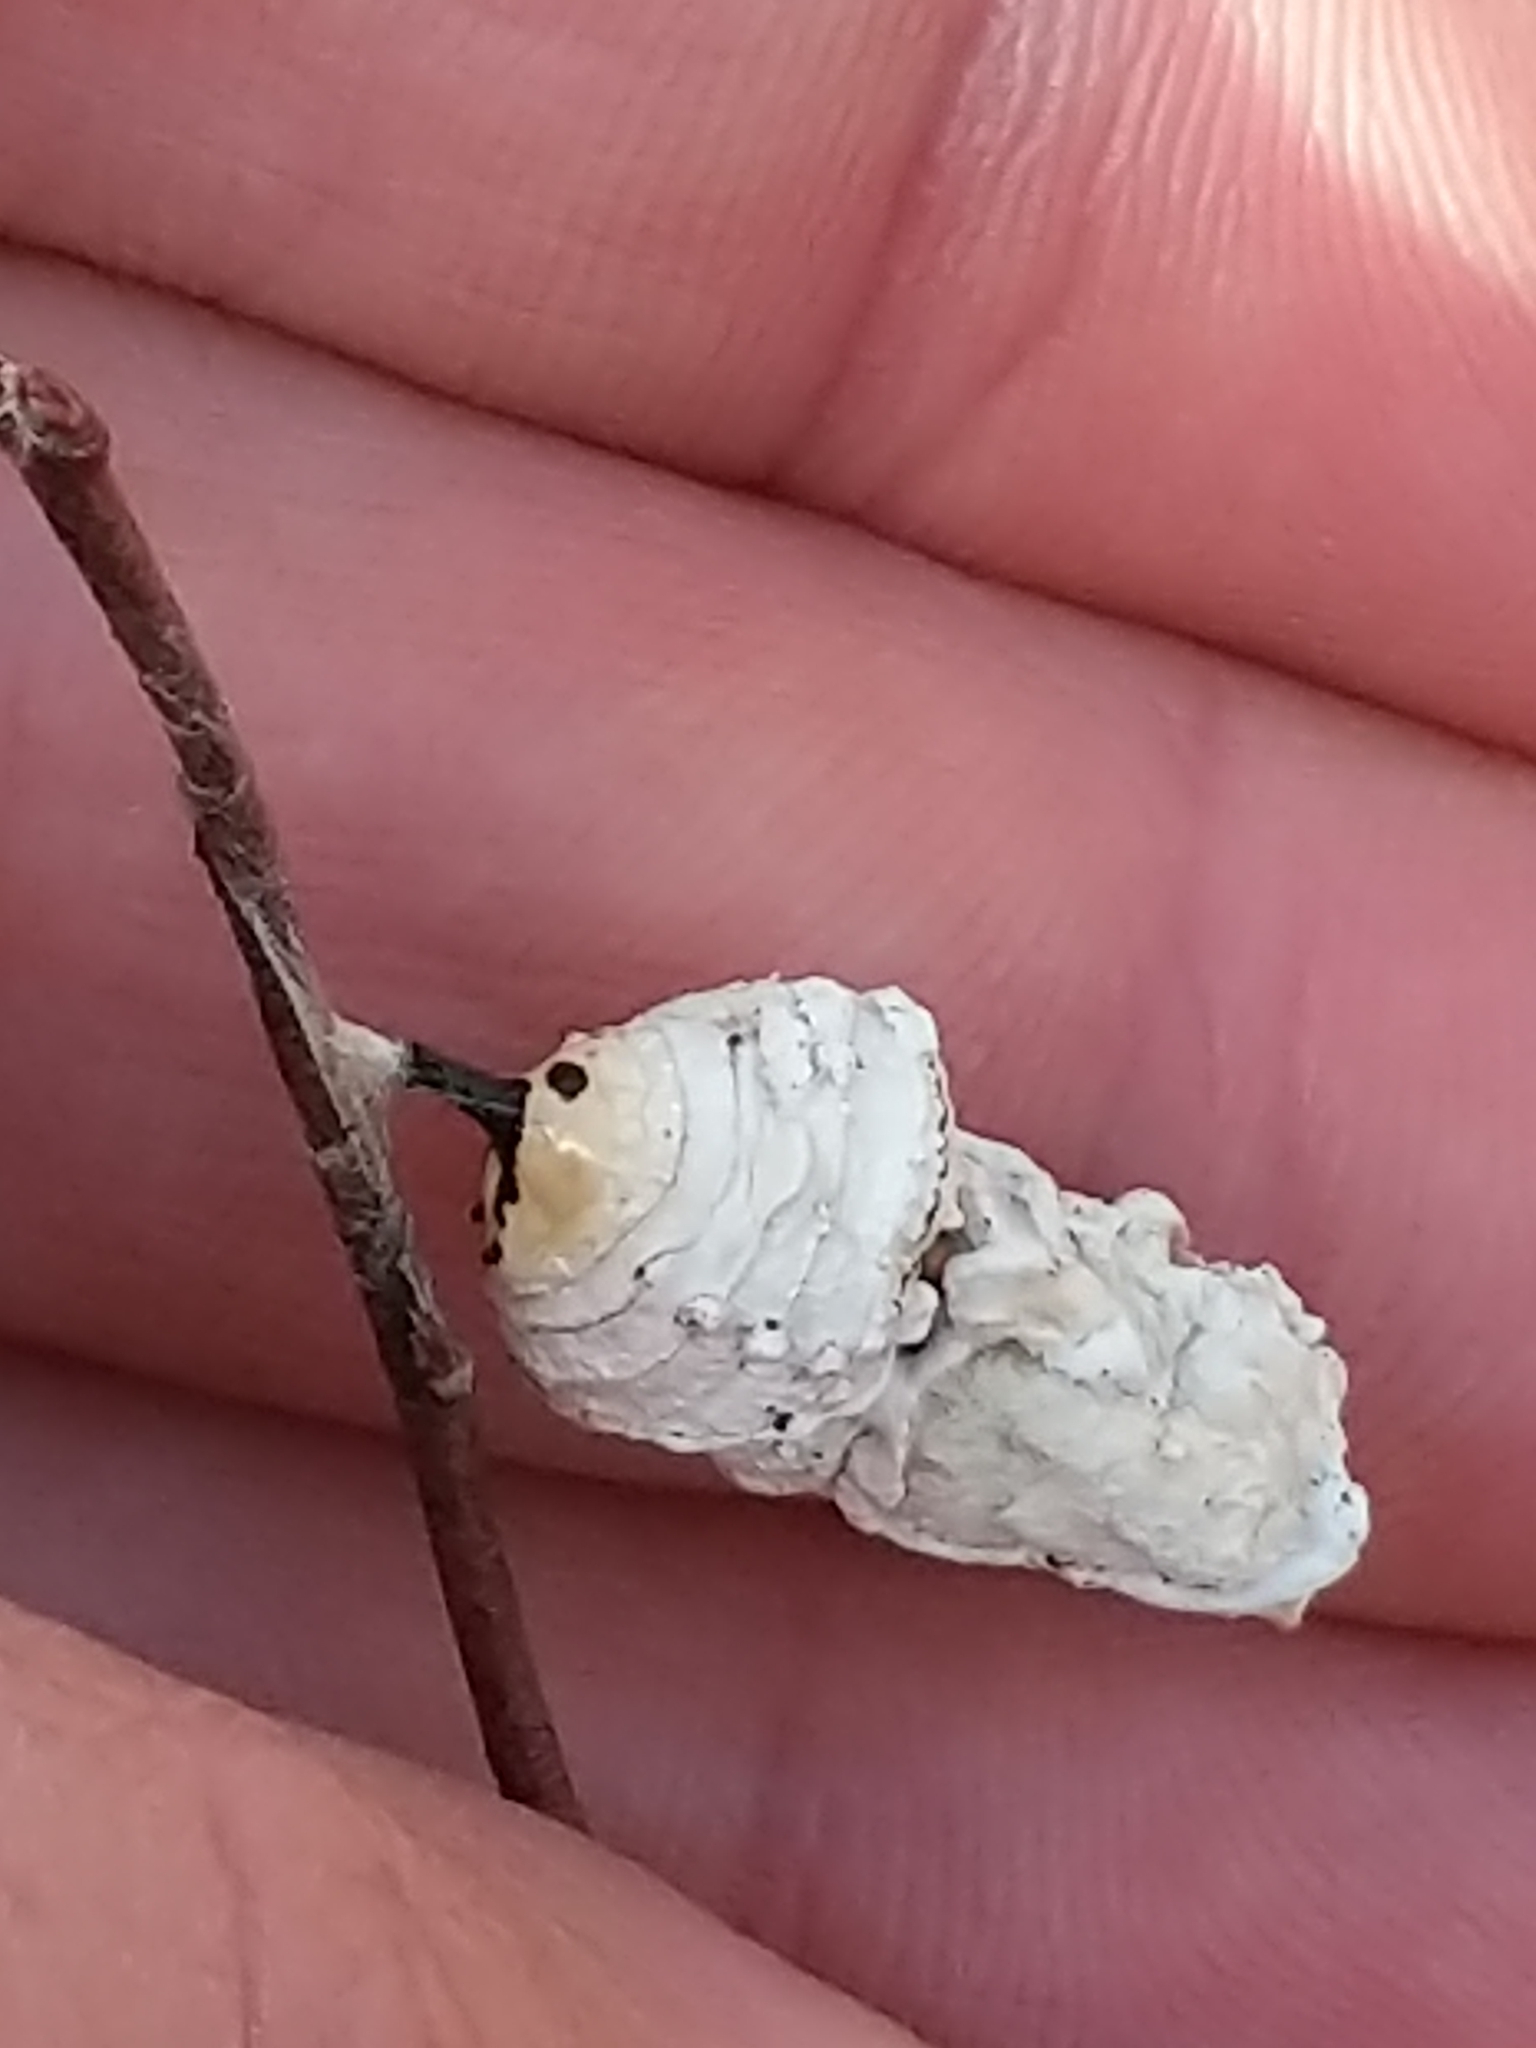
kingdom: Animalia
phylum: Arthropoda
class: Insecta
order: Lepidoptera
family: Nymphalidae
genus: Danaus
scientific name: Danaus plexippus
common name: Monarch
